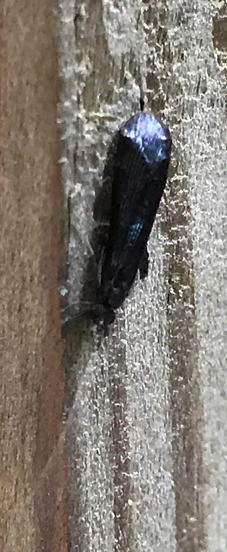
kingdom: Animalia
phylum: Arthropoda
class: Insecta
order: Trichoptera
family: Leptoceridae
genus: Mystacides
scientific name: Mystacides sepulchralis
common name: Black dancer caddisfly
